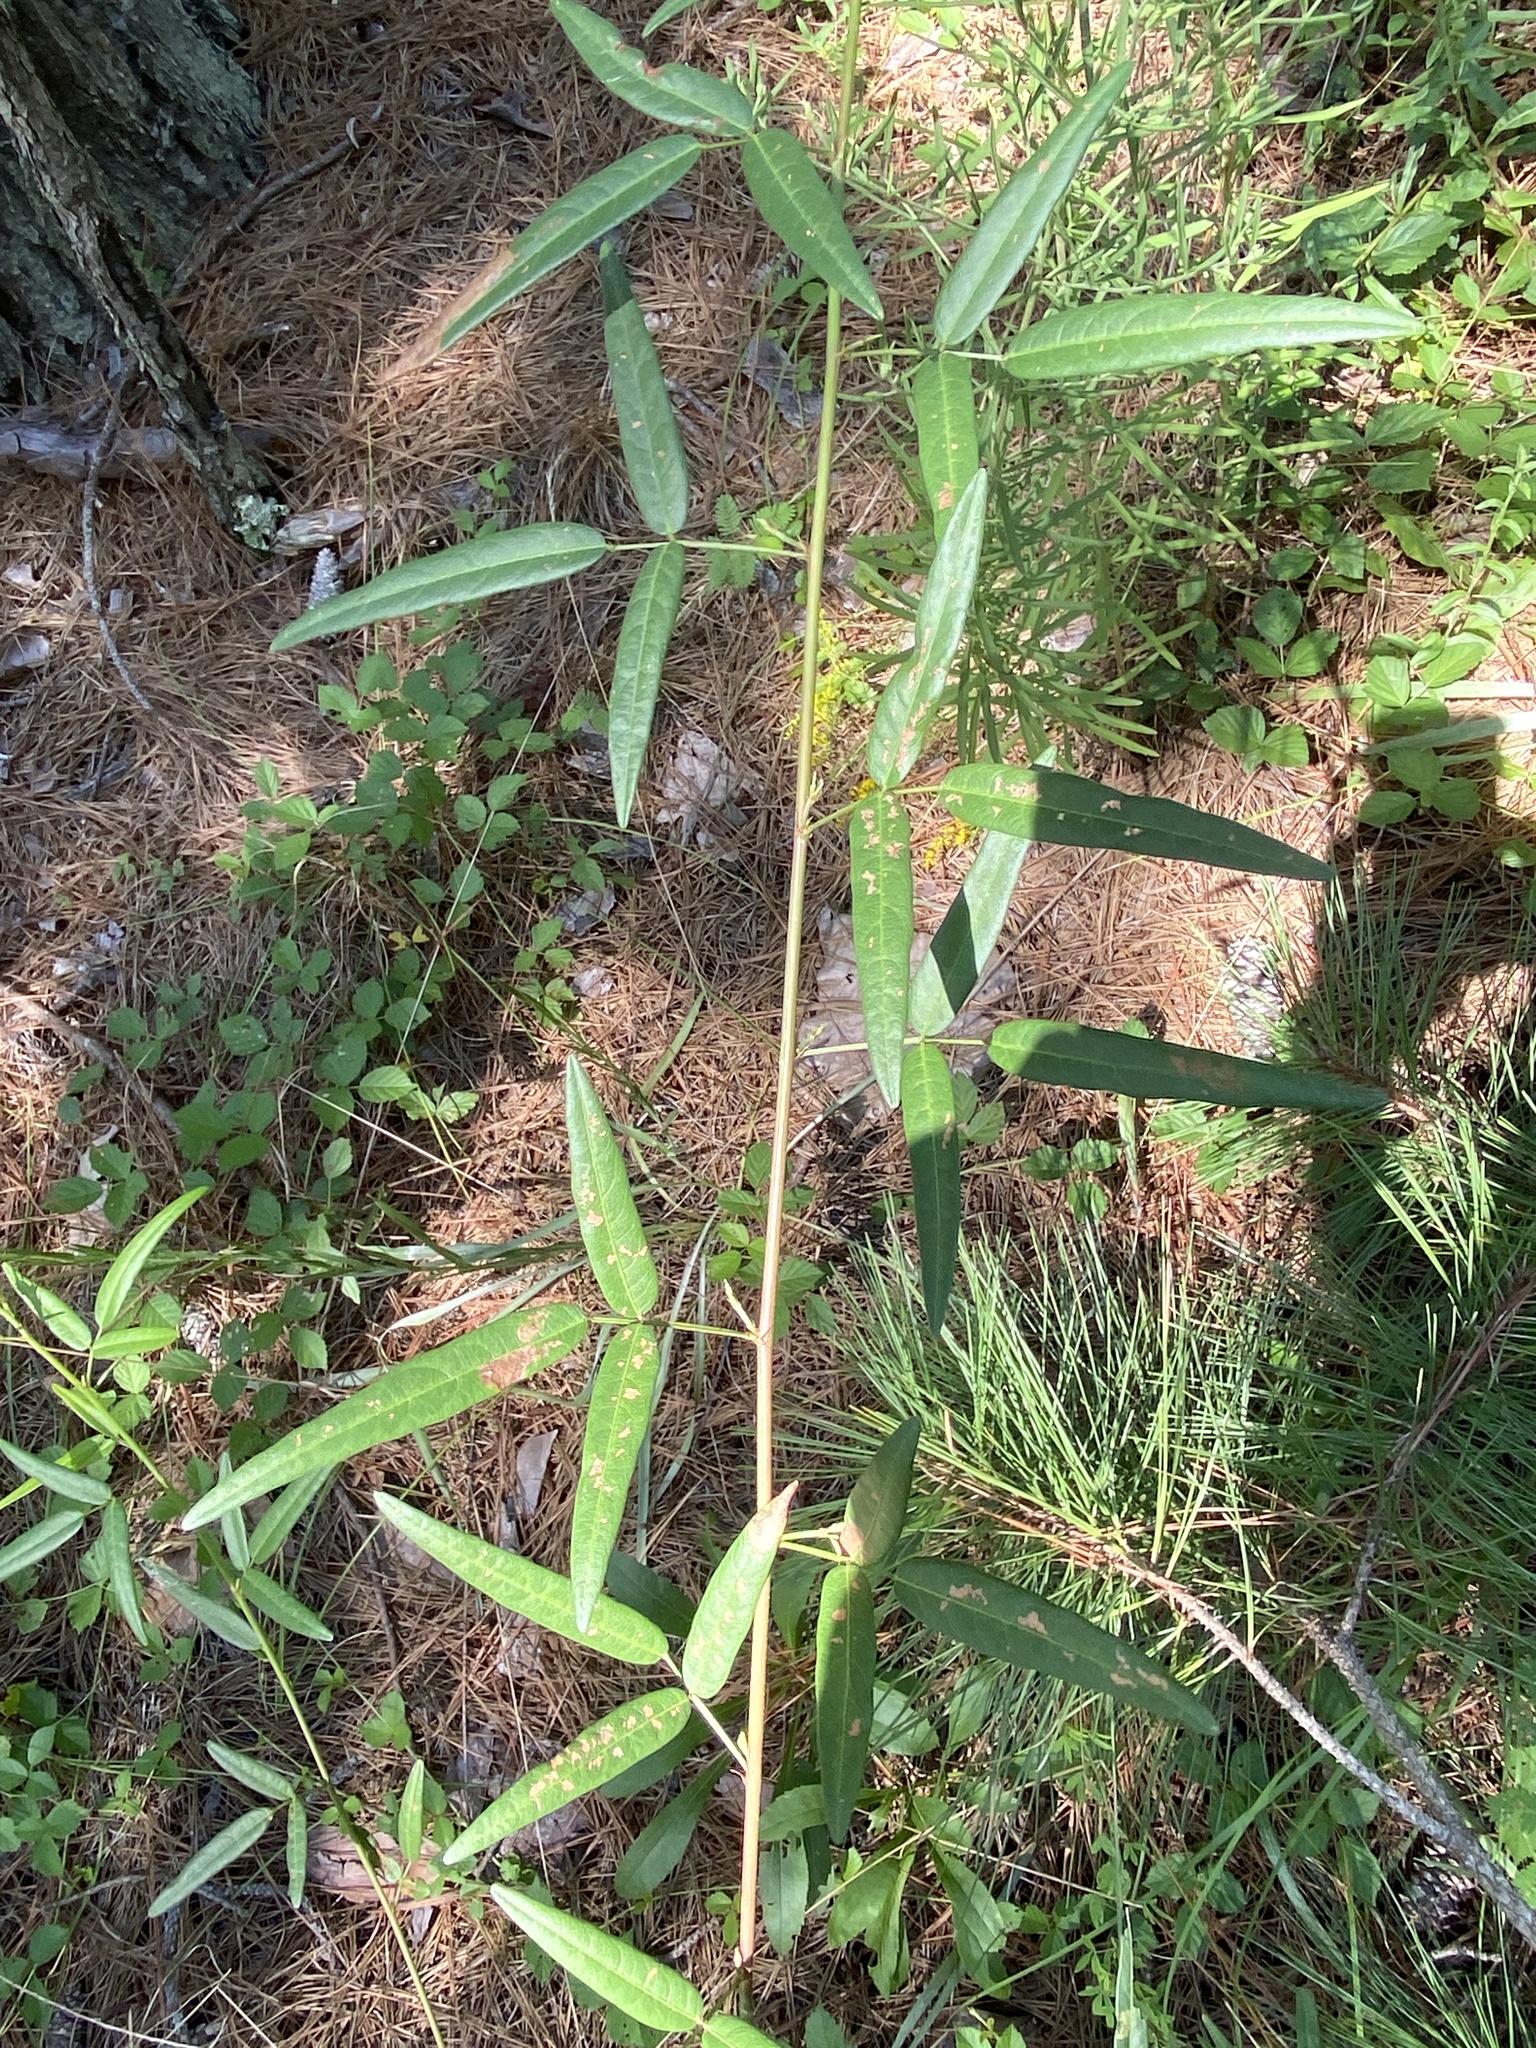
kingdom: Plantae
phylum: Tracheophyta
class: Magnoliopsida
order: Fabales
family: Fabaceae
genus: Desmodium
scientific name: Desmodium paniculatum
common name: Panicled tick-clover
